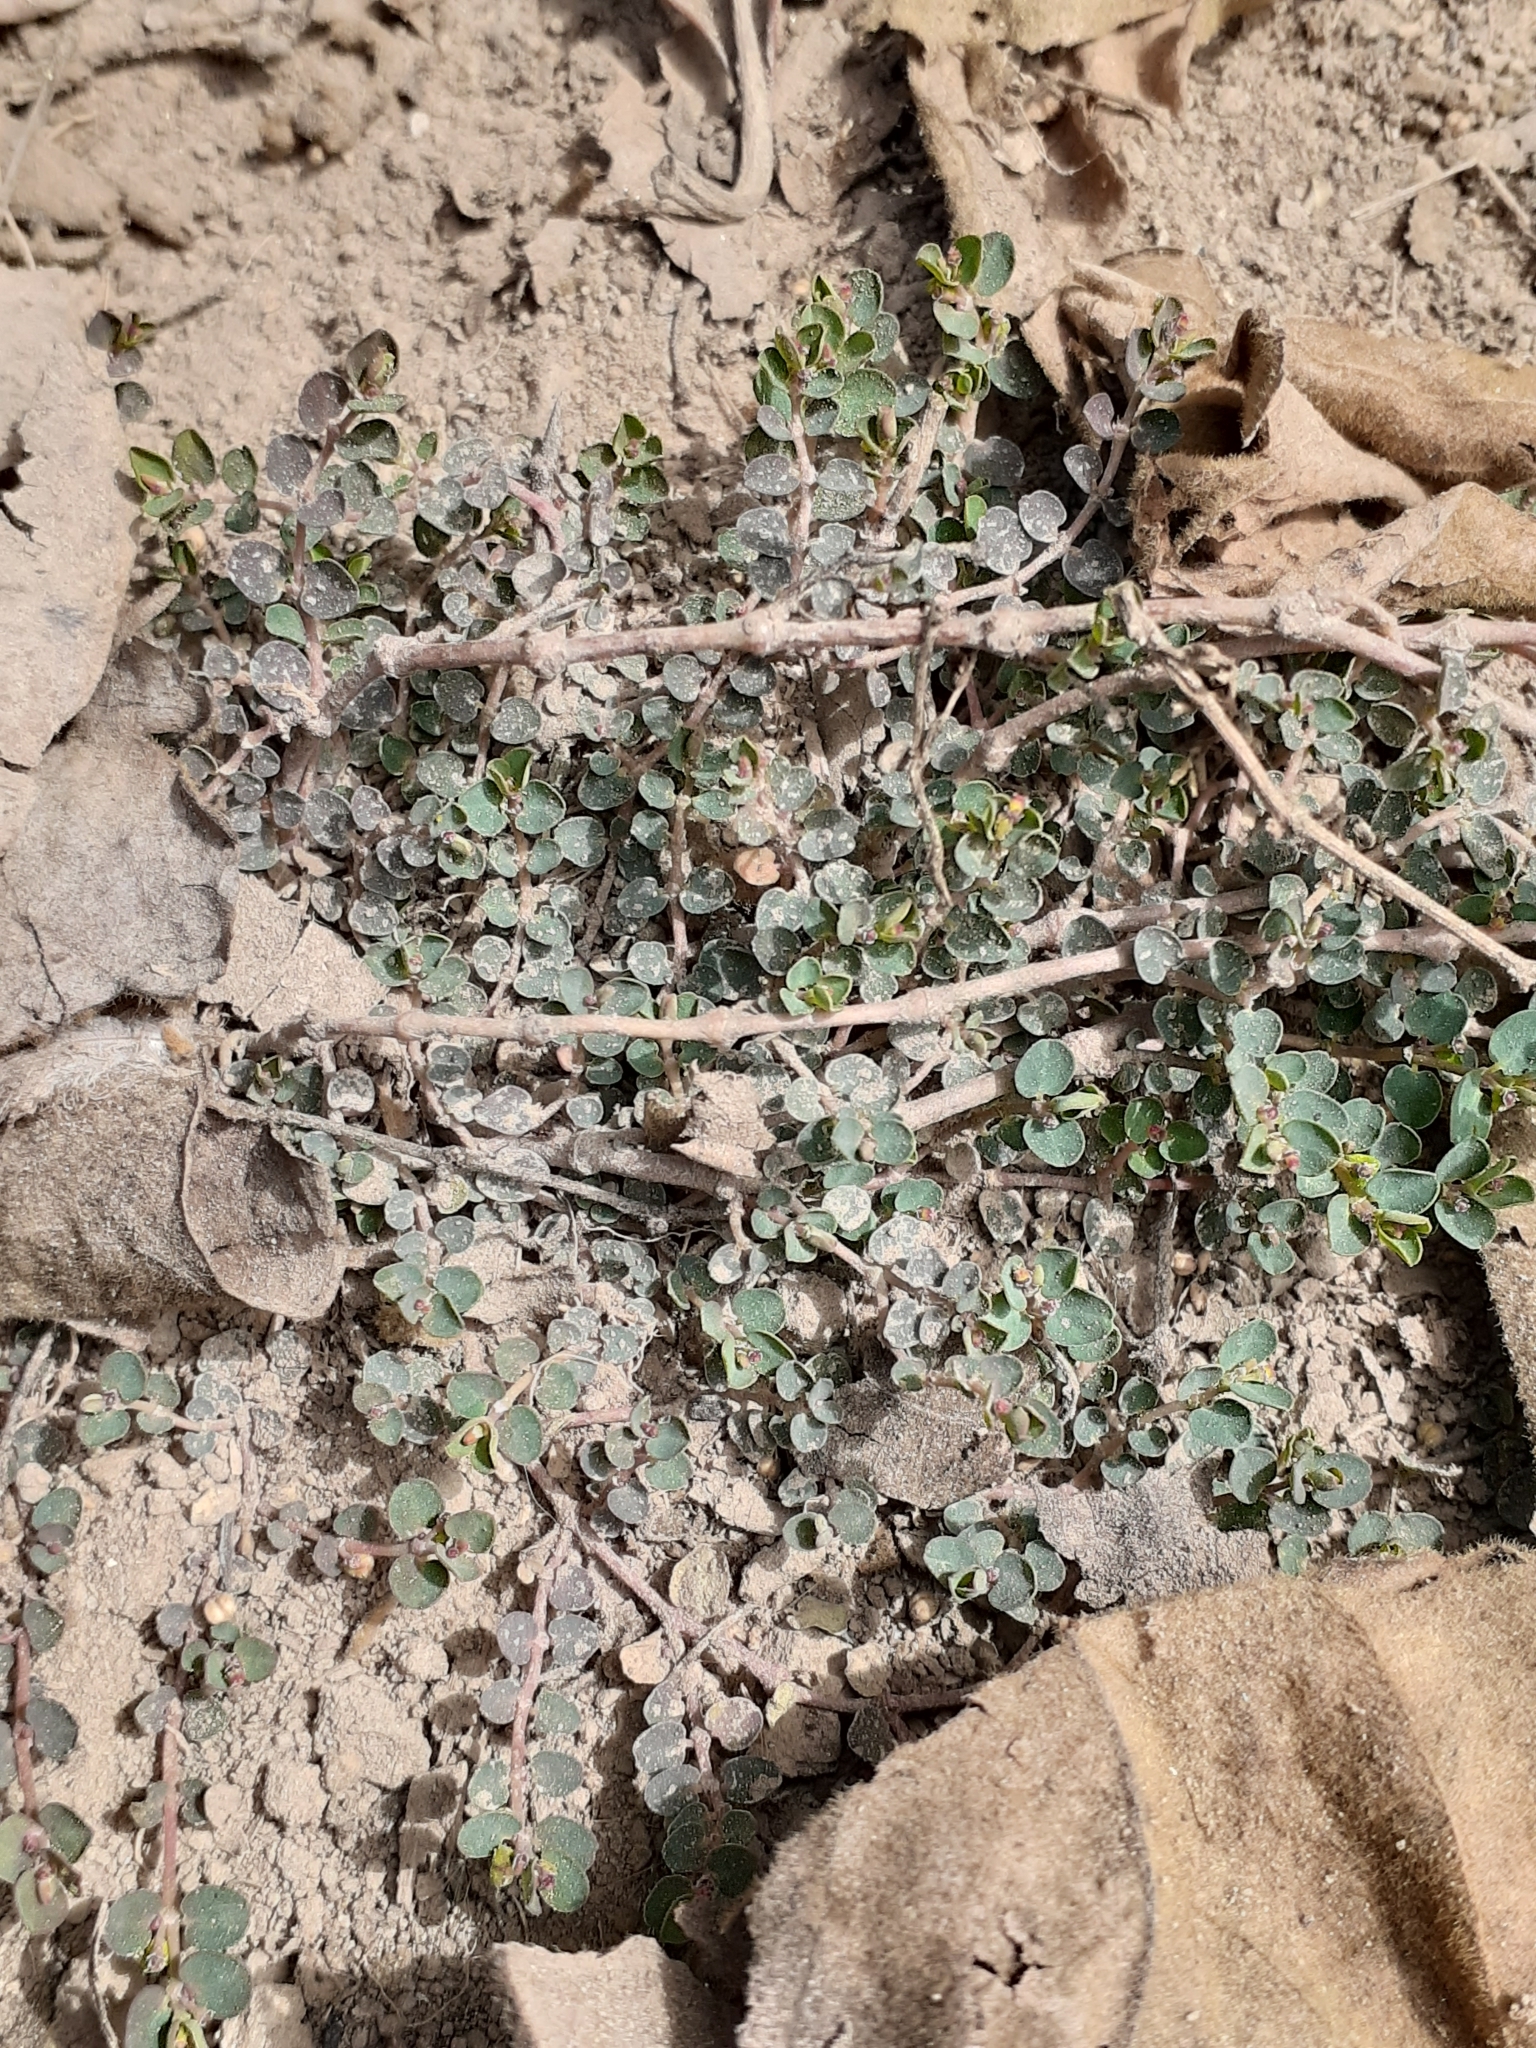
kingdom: Plantae
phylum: Tracheophyta
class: Magnoliopsida
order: Malpighiales
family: Euphorbiaceae
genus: Euphorbia
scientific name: Euphorbia serpens
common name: Matted sandmat
